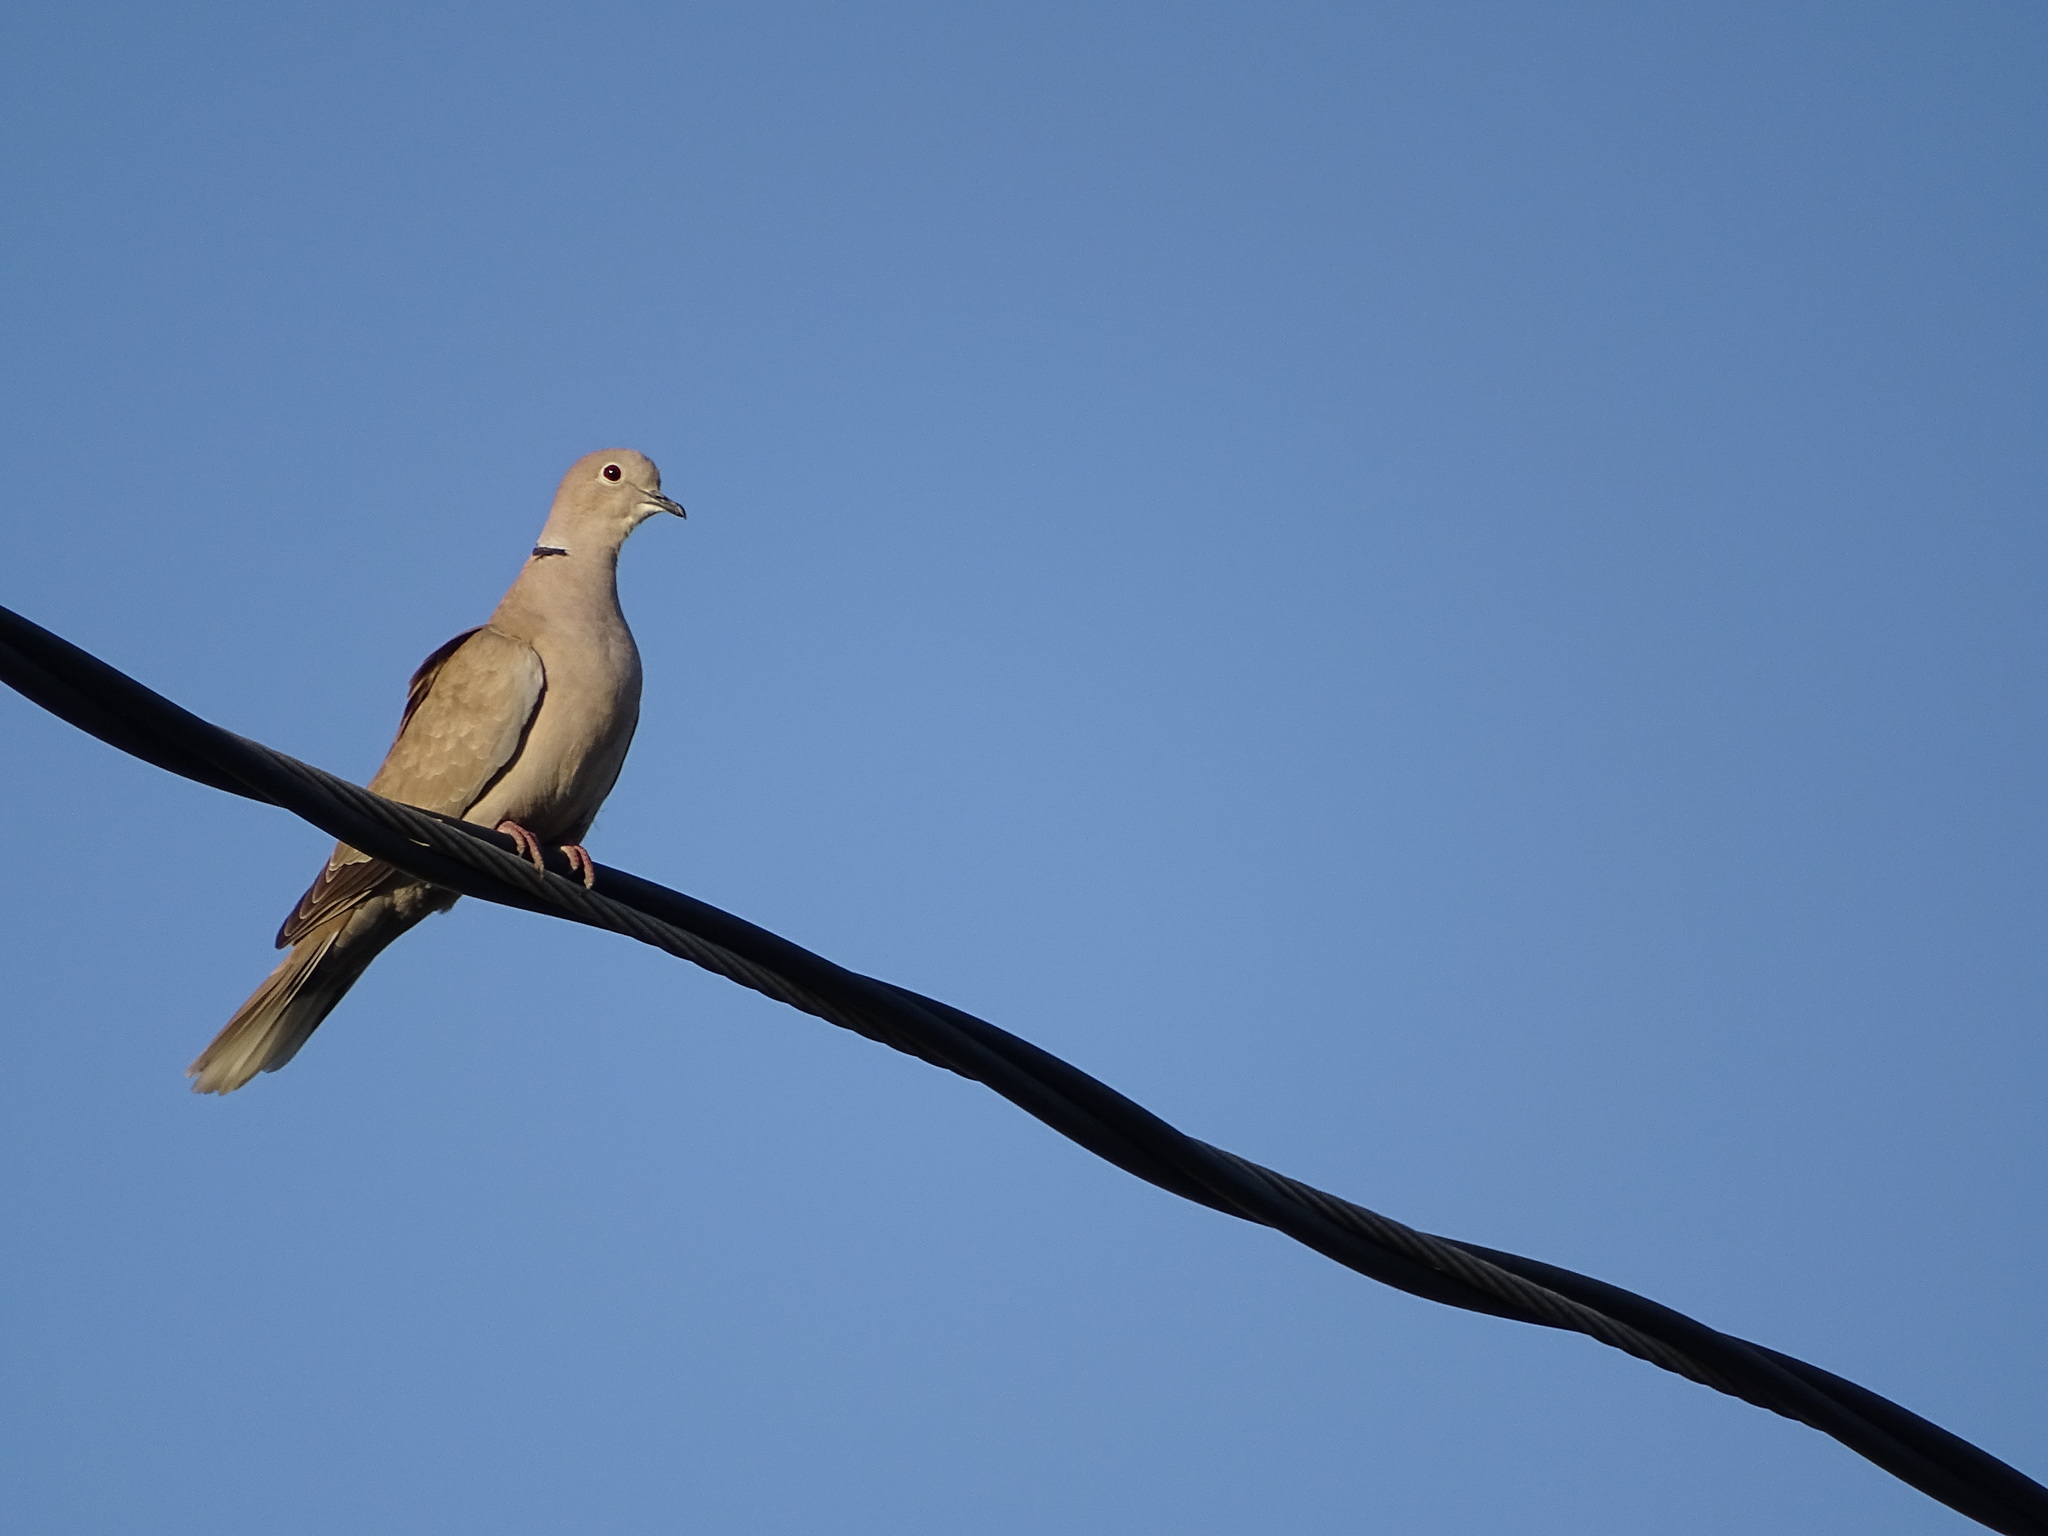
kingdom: Animalia
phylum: Chordata
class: Aves
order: Columbiformes
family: Columbidae
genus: Streptopelia
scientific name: Streptopelia decaocto
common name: Eurasian collared dove
